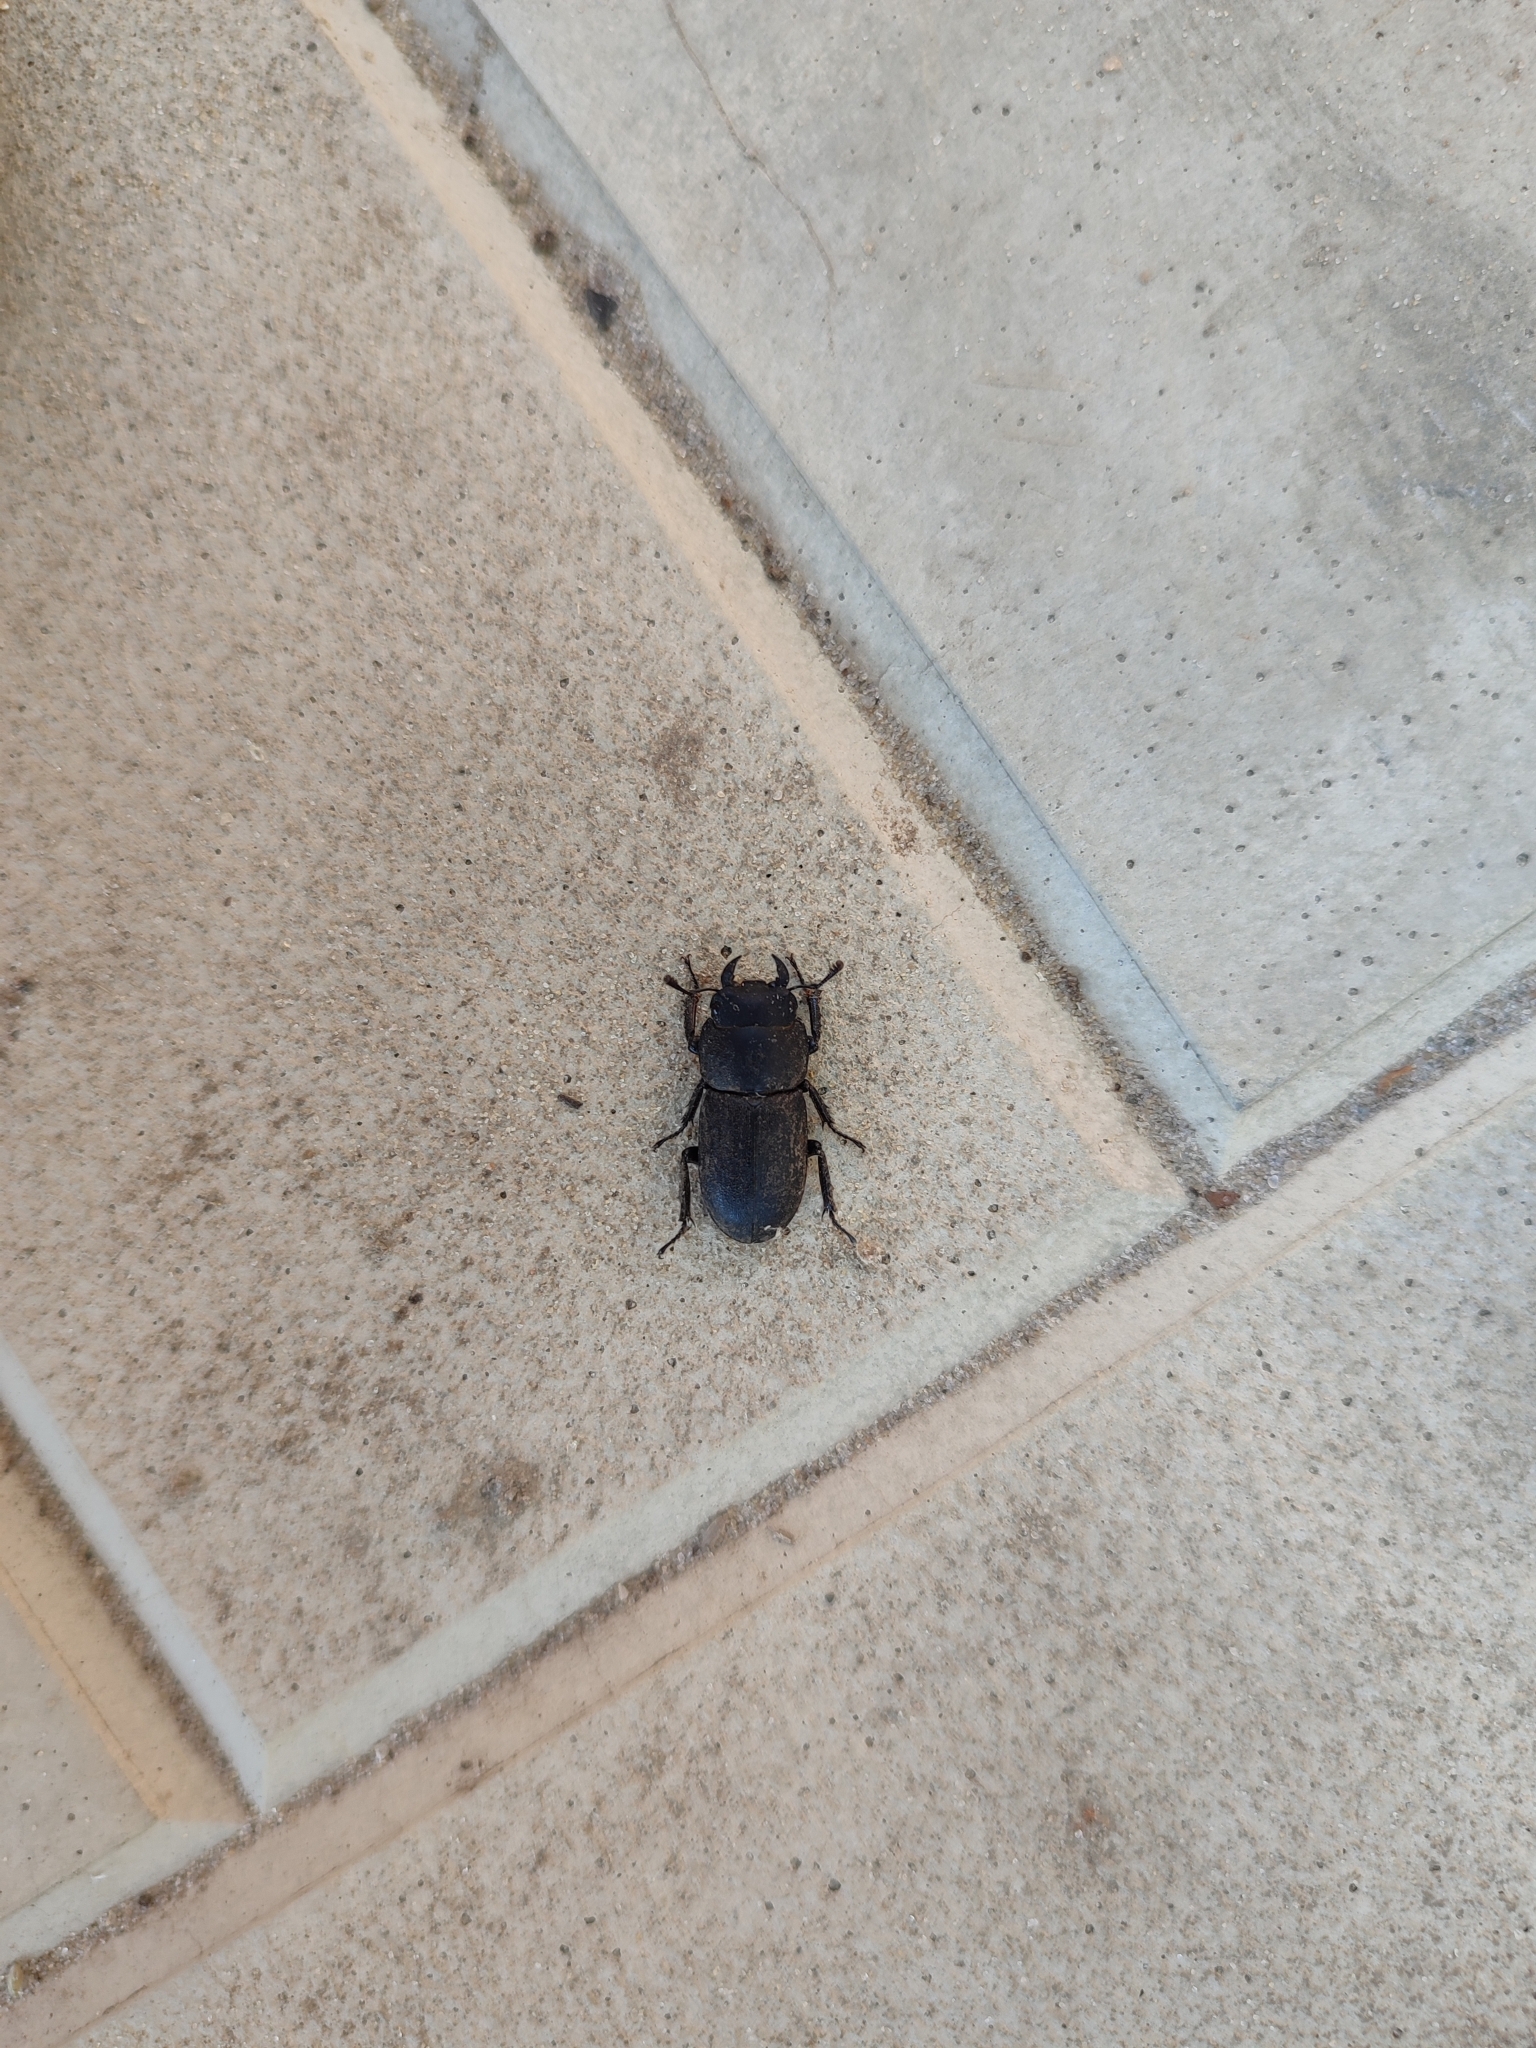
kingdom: Animalia
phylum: Arthropoda
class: Insecta
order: Coleoptera
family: Lucanidae
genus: Dorcus
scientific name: Dorcus parallelipipedus
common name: Lesser stag beetle
